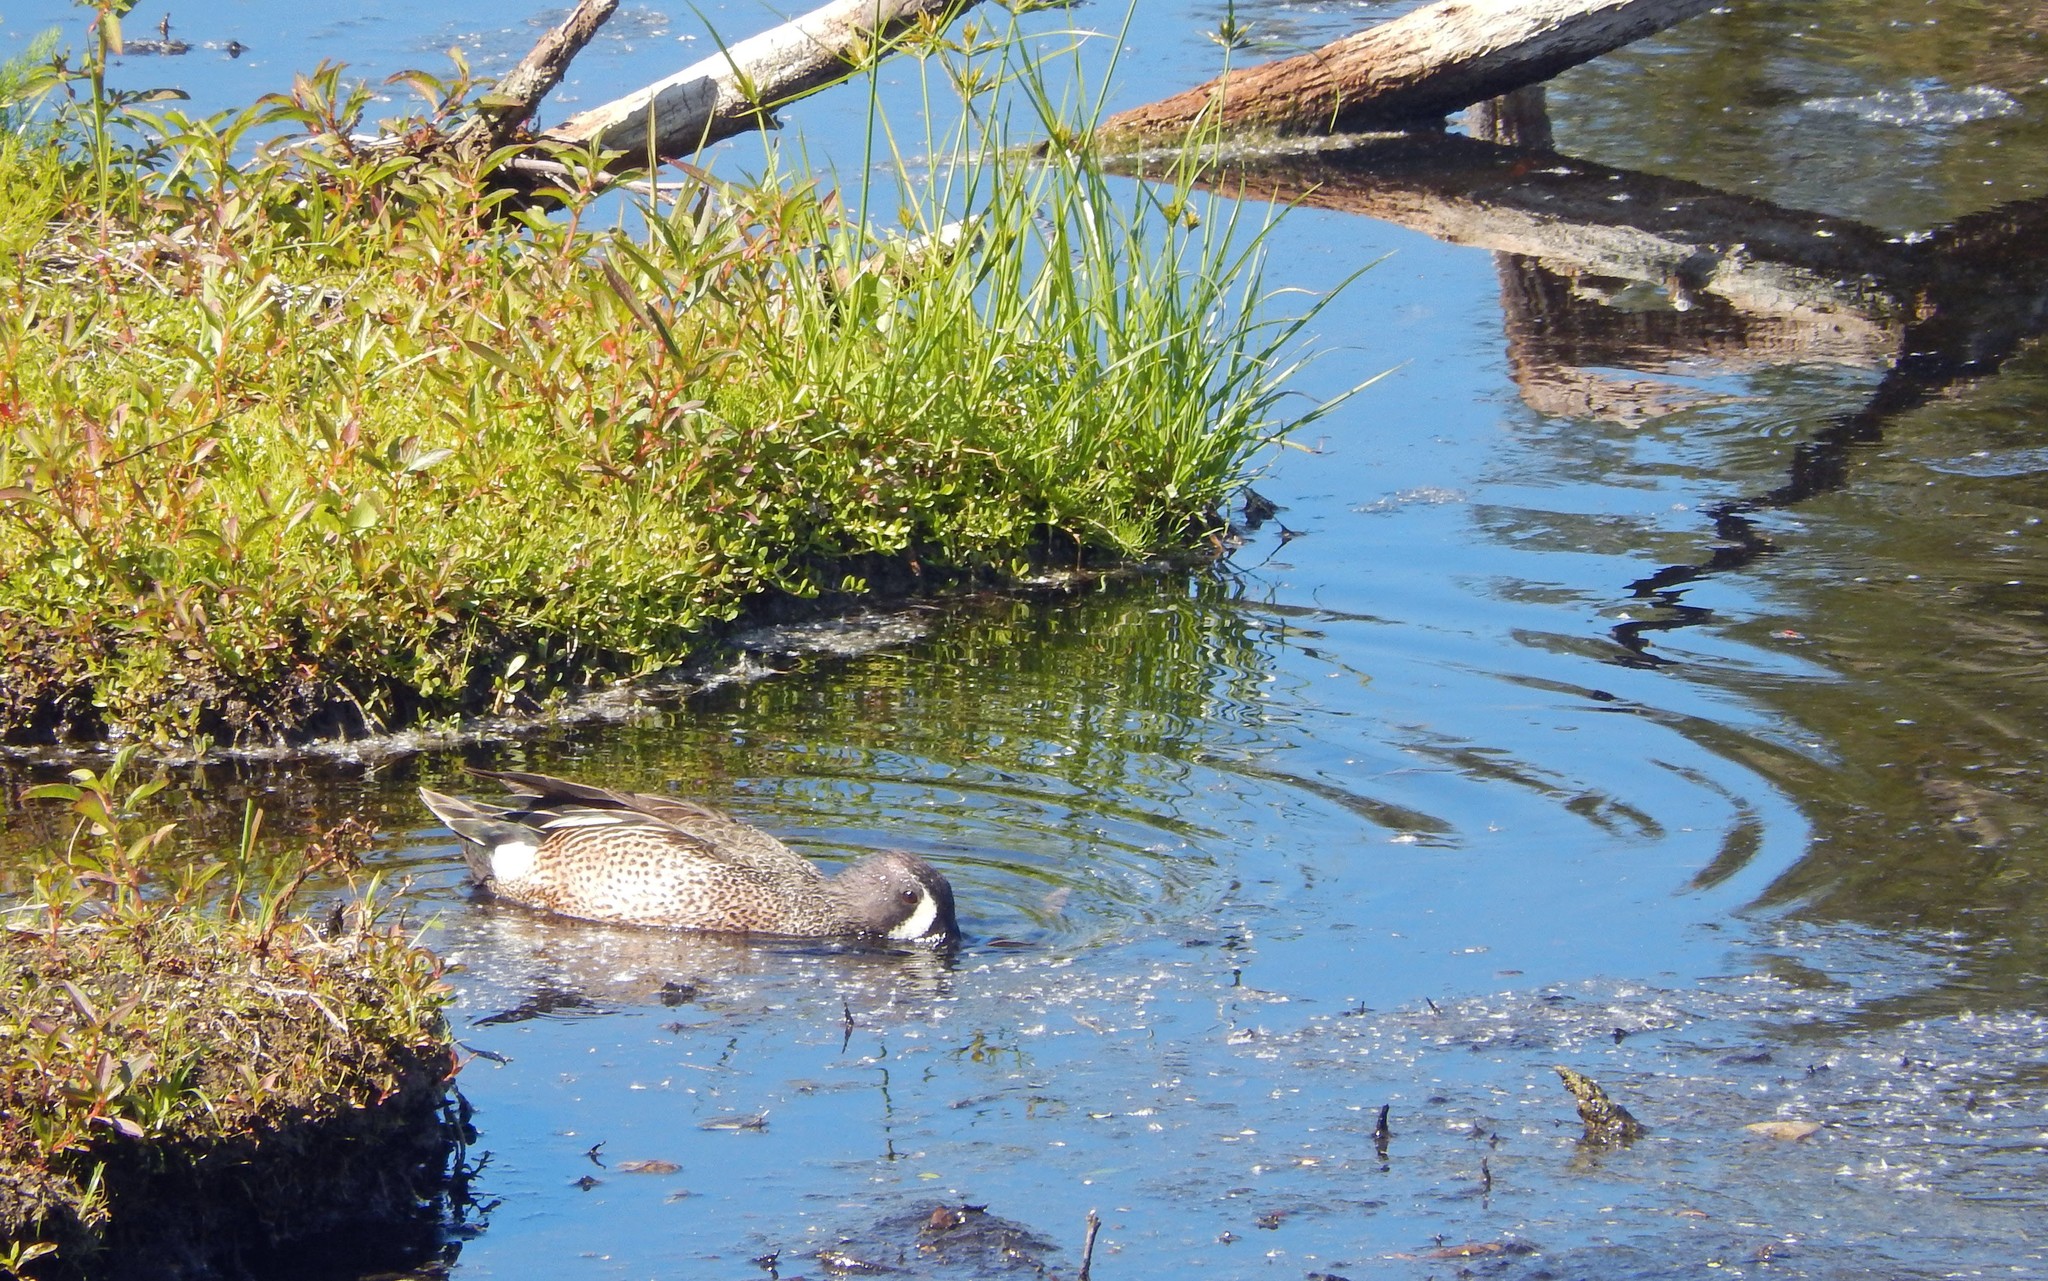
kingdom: Animalia
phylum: Chordata
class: Aves
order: Anseriformes
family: Anatidae
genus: Spatula
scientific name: Spatula discors
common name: Blue-winged teal
